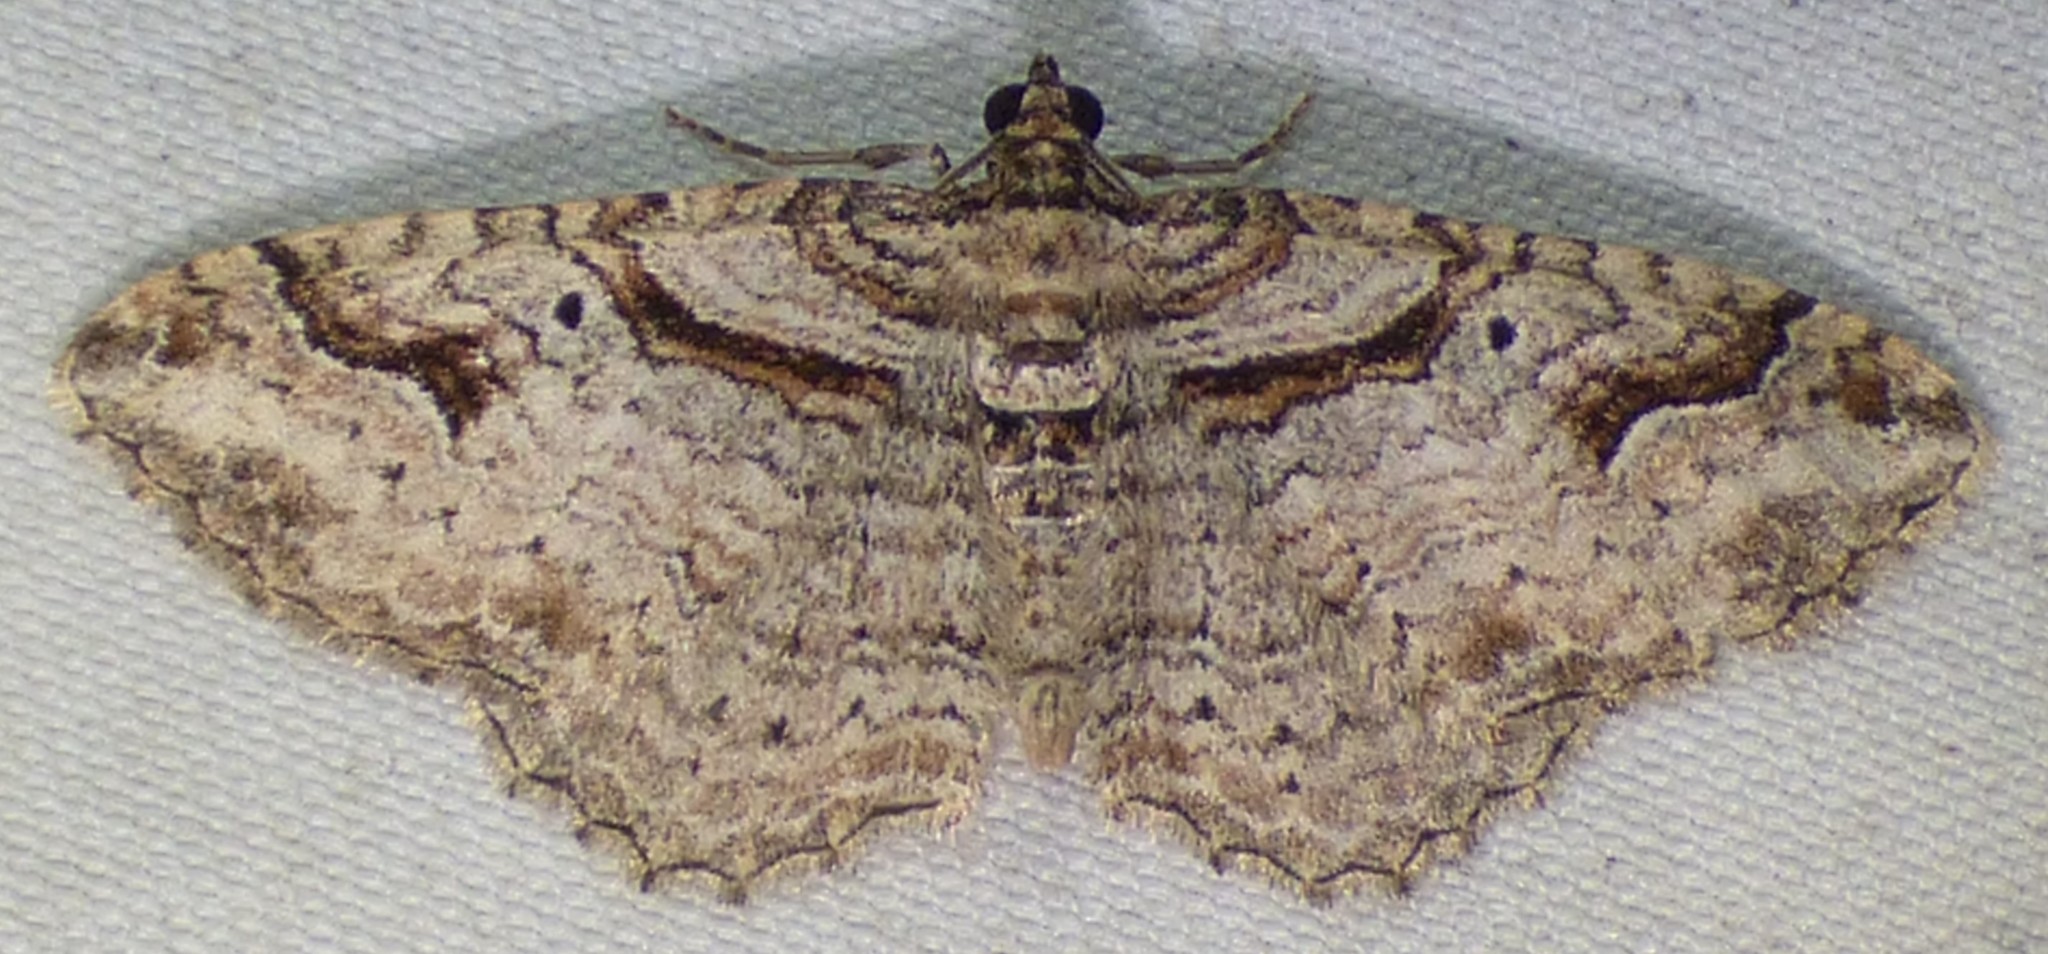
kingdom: Animalia
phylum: Arthropoda
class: Insecta
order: Lepidoptera
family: Geometridae
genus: Costaconvexa
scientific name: Costaconvexa centrostrigaria
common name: Bent-line carpet
